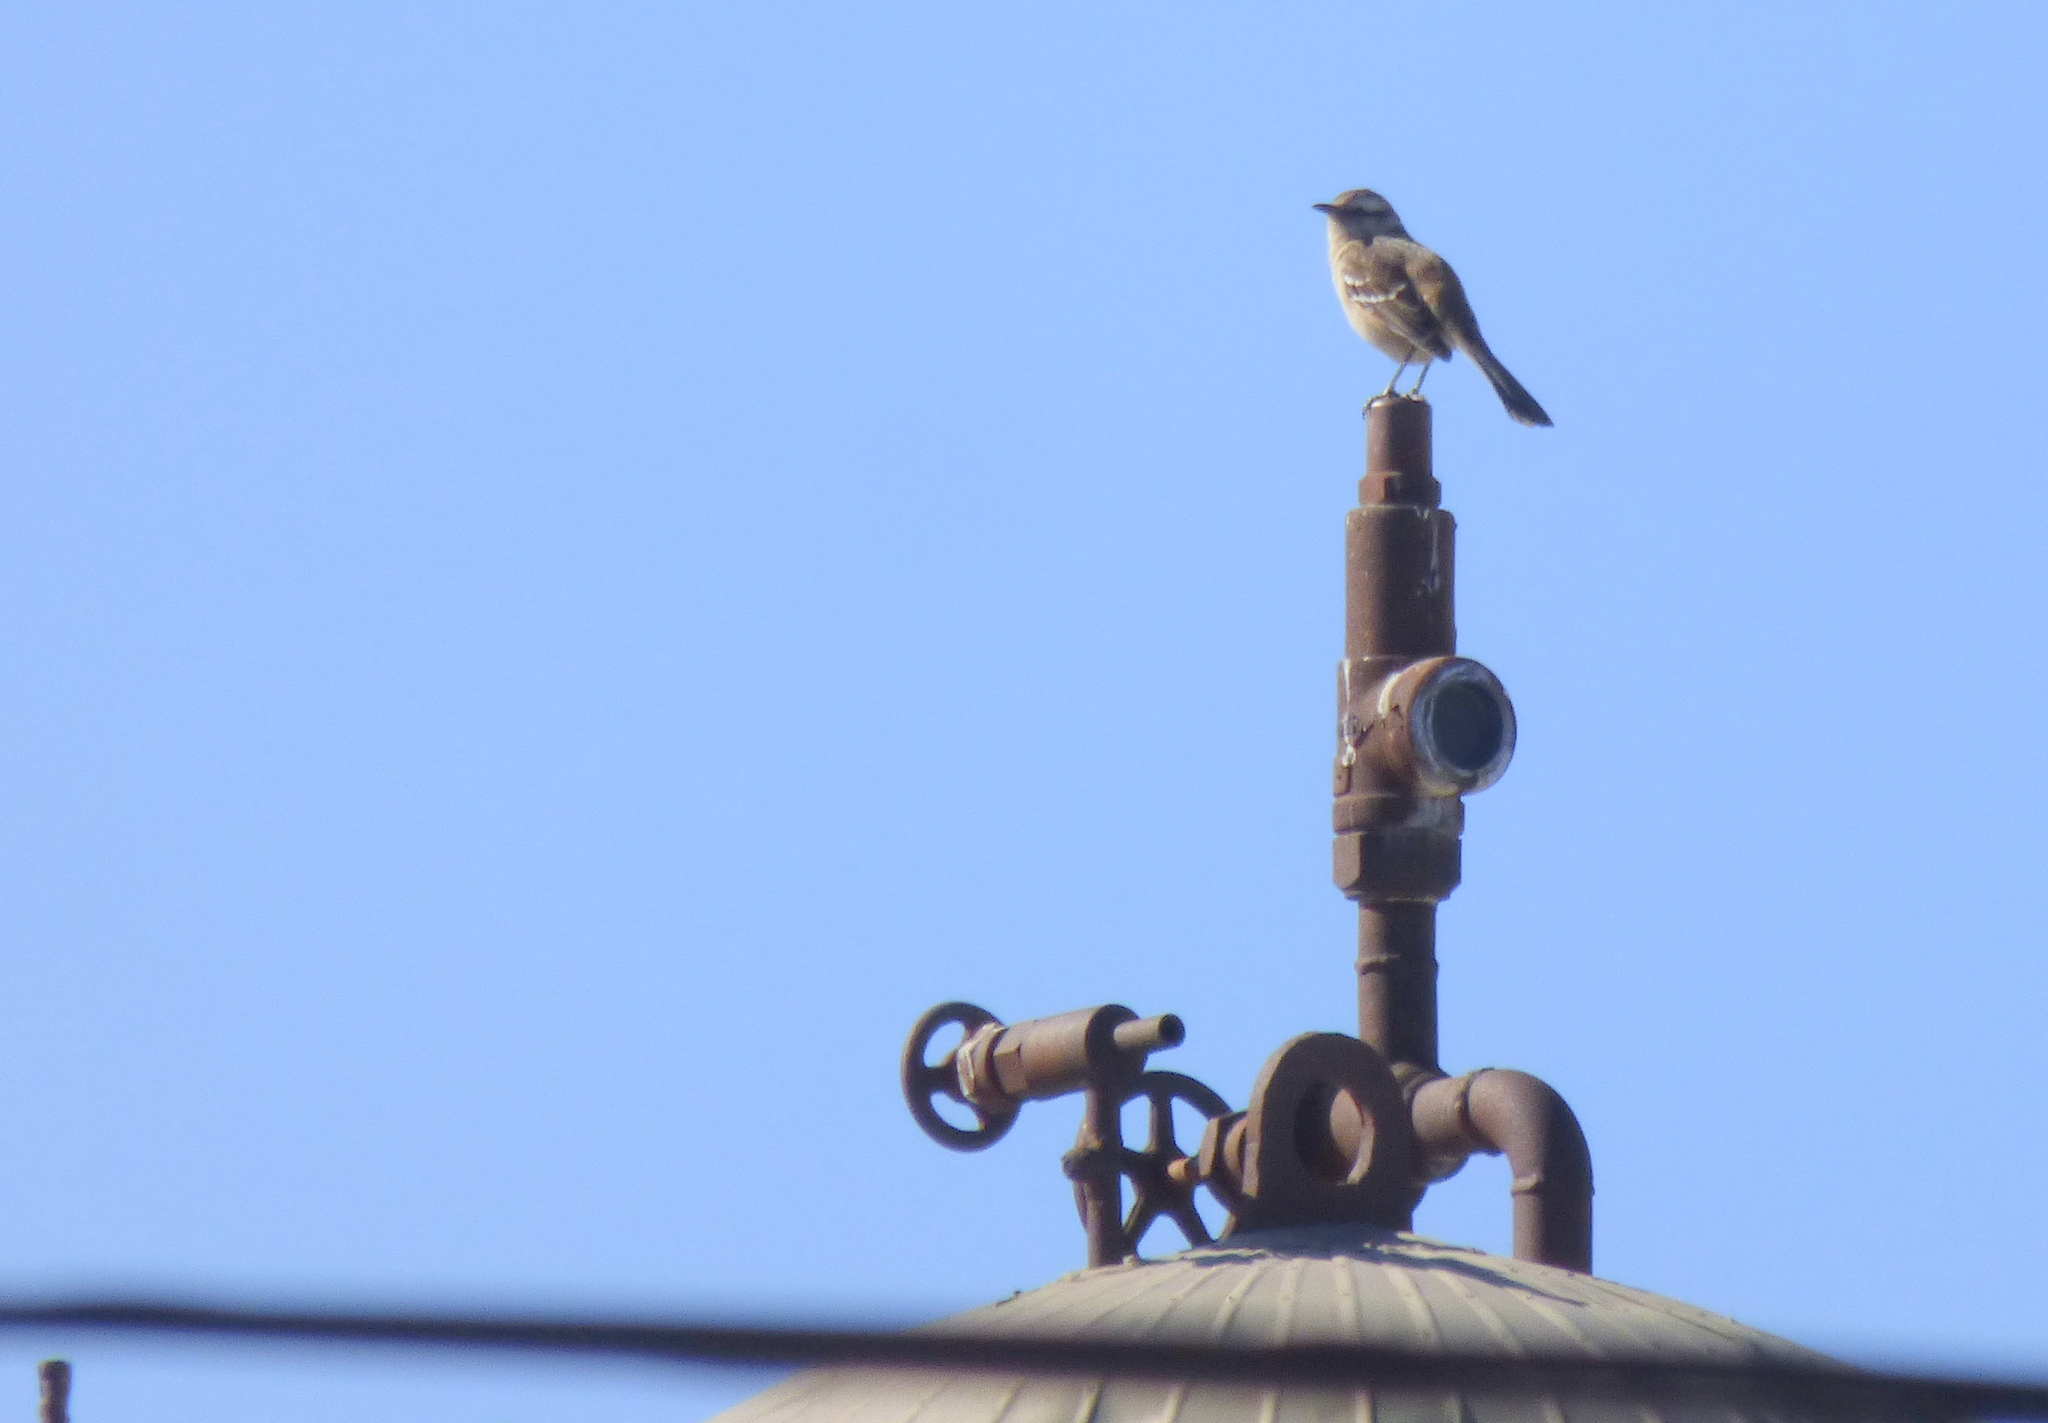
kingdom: Animalia
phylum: Chordata
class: Aves
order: Passeriformes
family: Mimidae
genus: Mimus
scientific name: Mimus saturninus
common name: Chalk-browed mockingbird
